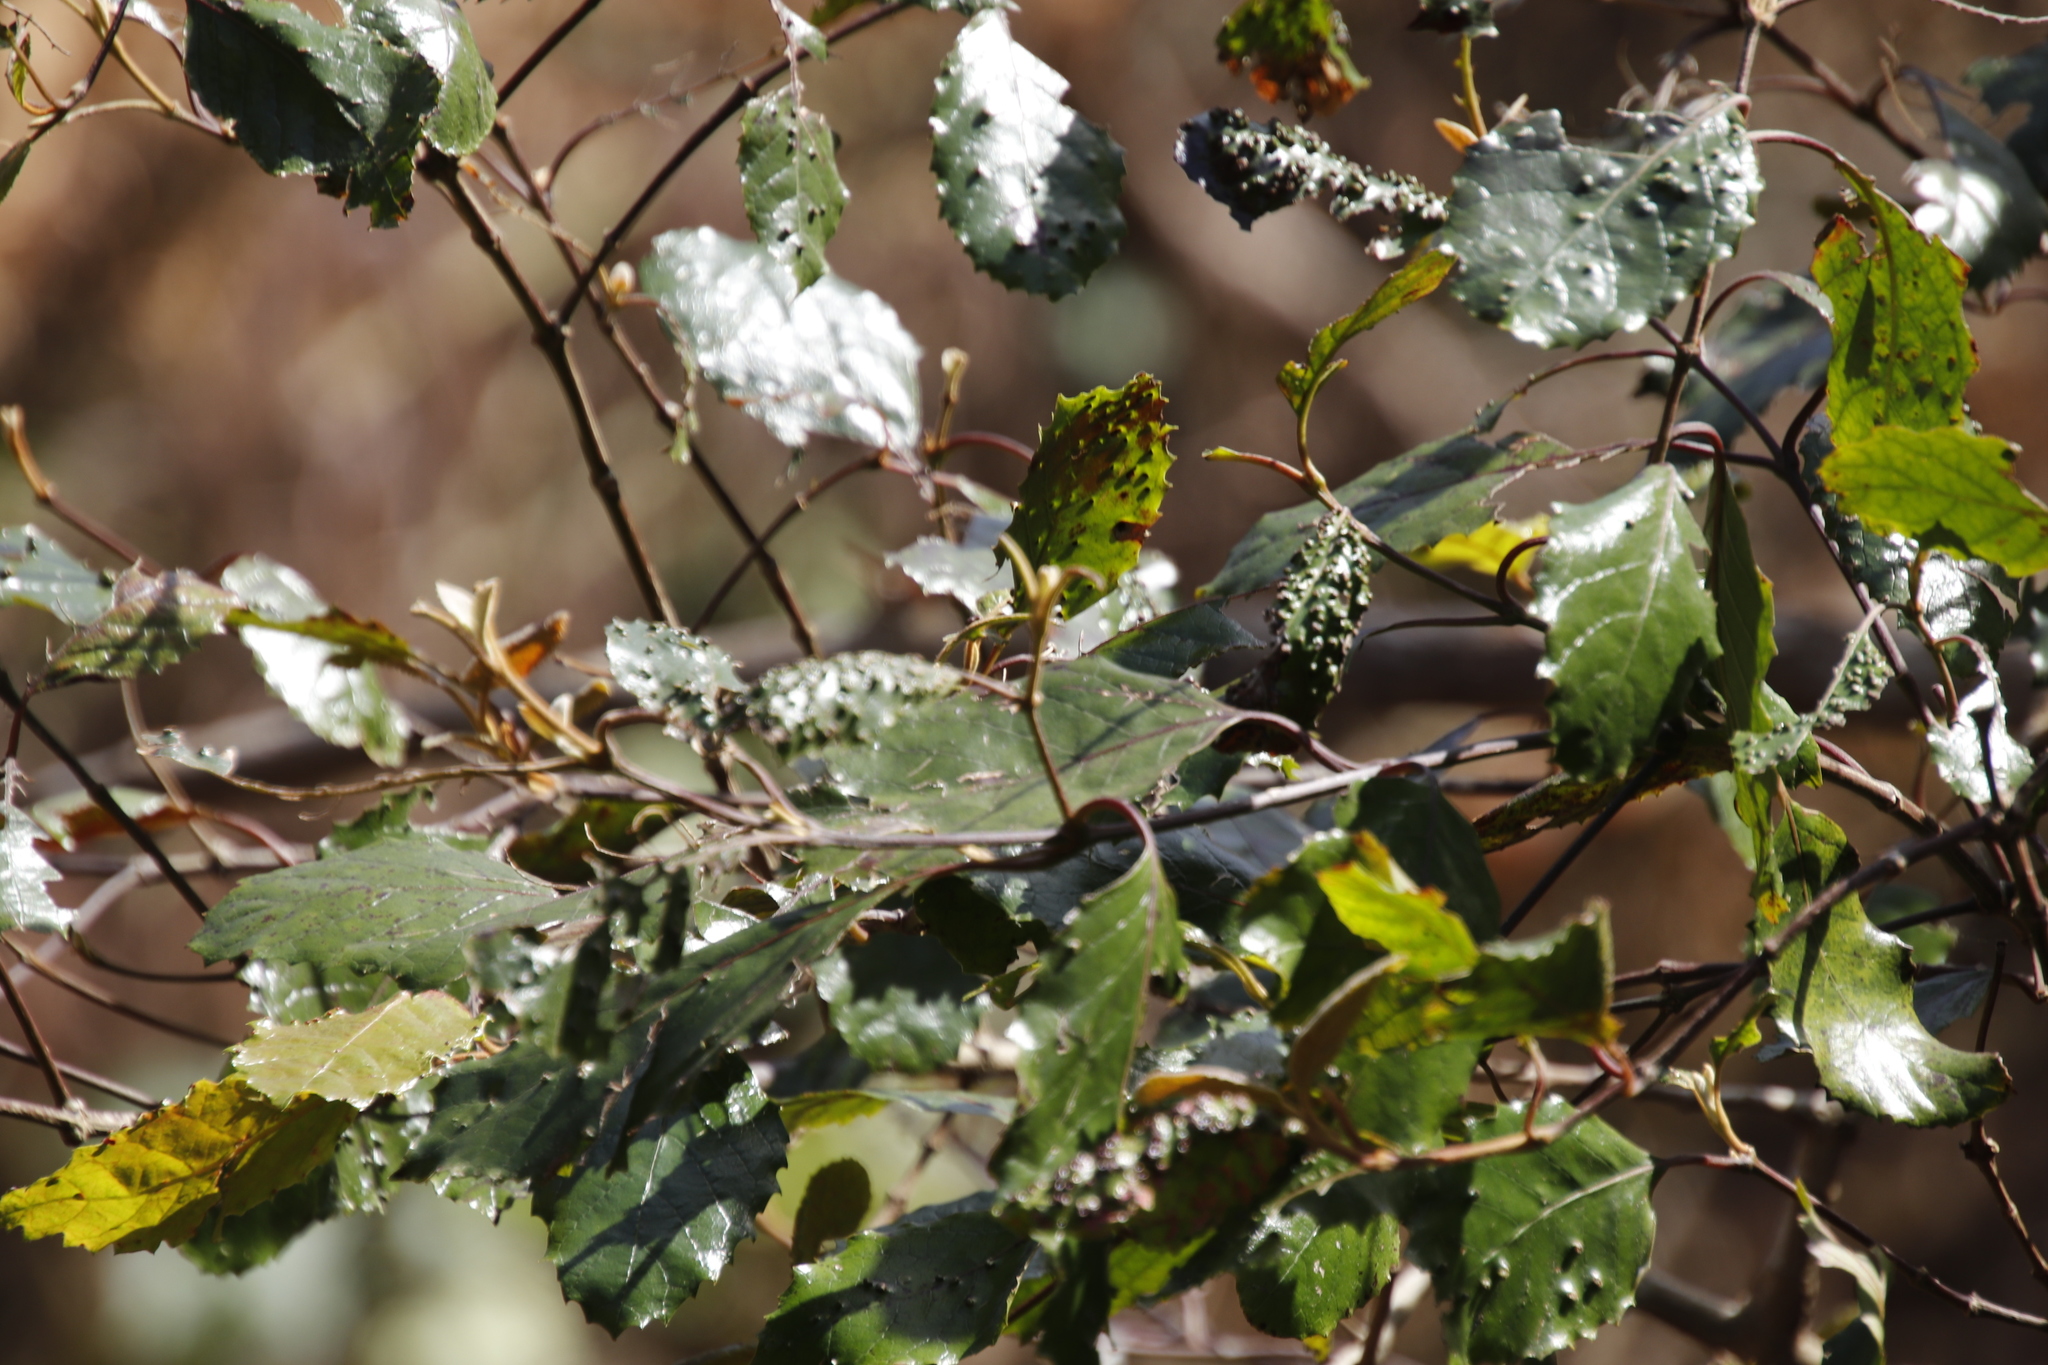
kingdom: Plantae
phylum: Tracheophyta
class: Magnoliopsida
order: Cornales
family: Curtisiaceae
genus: Curtisia
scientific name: Curtisia dentata
